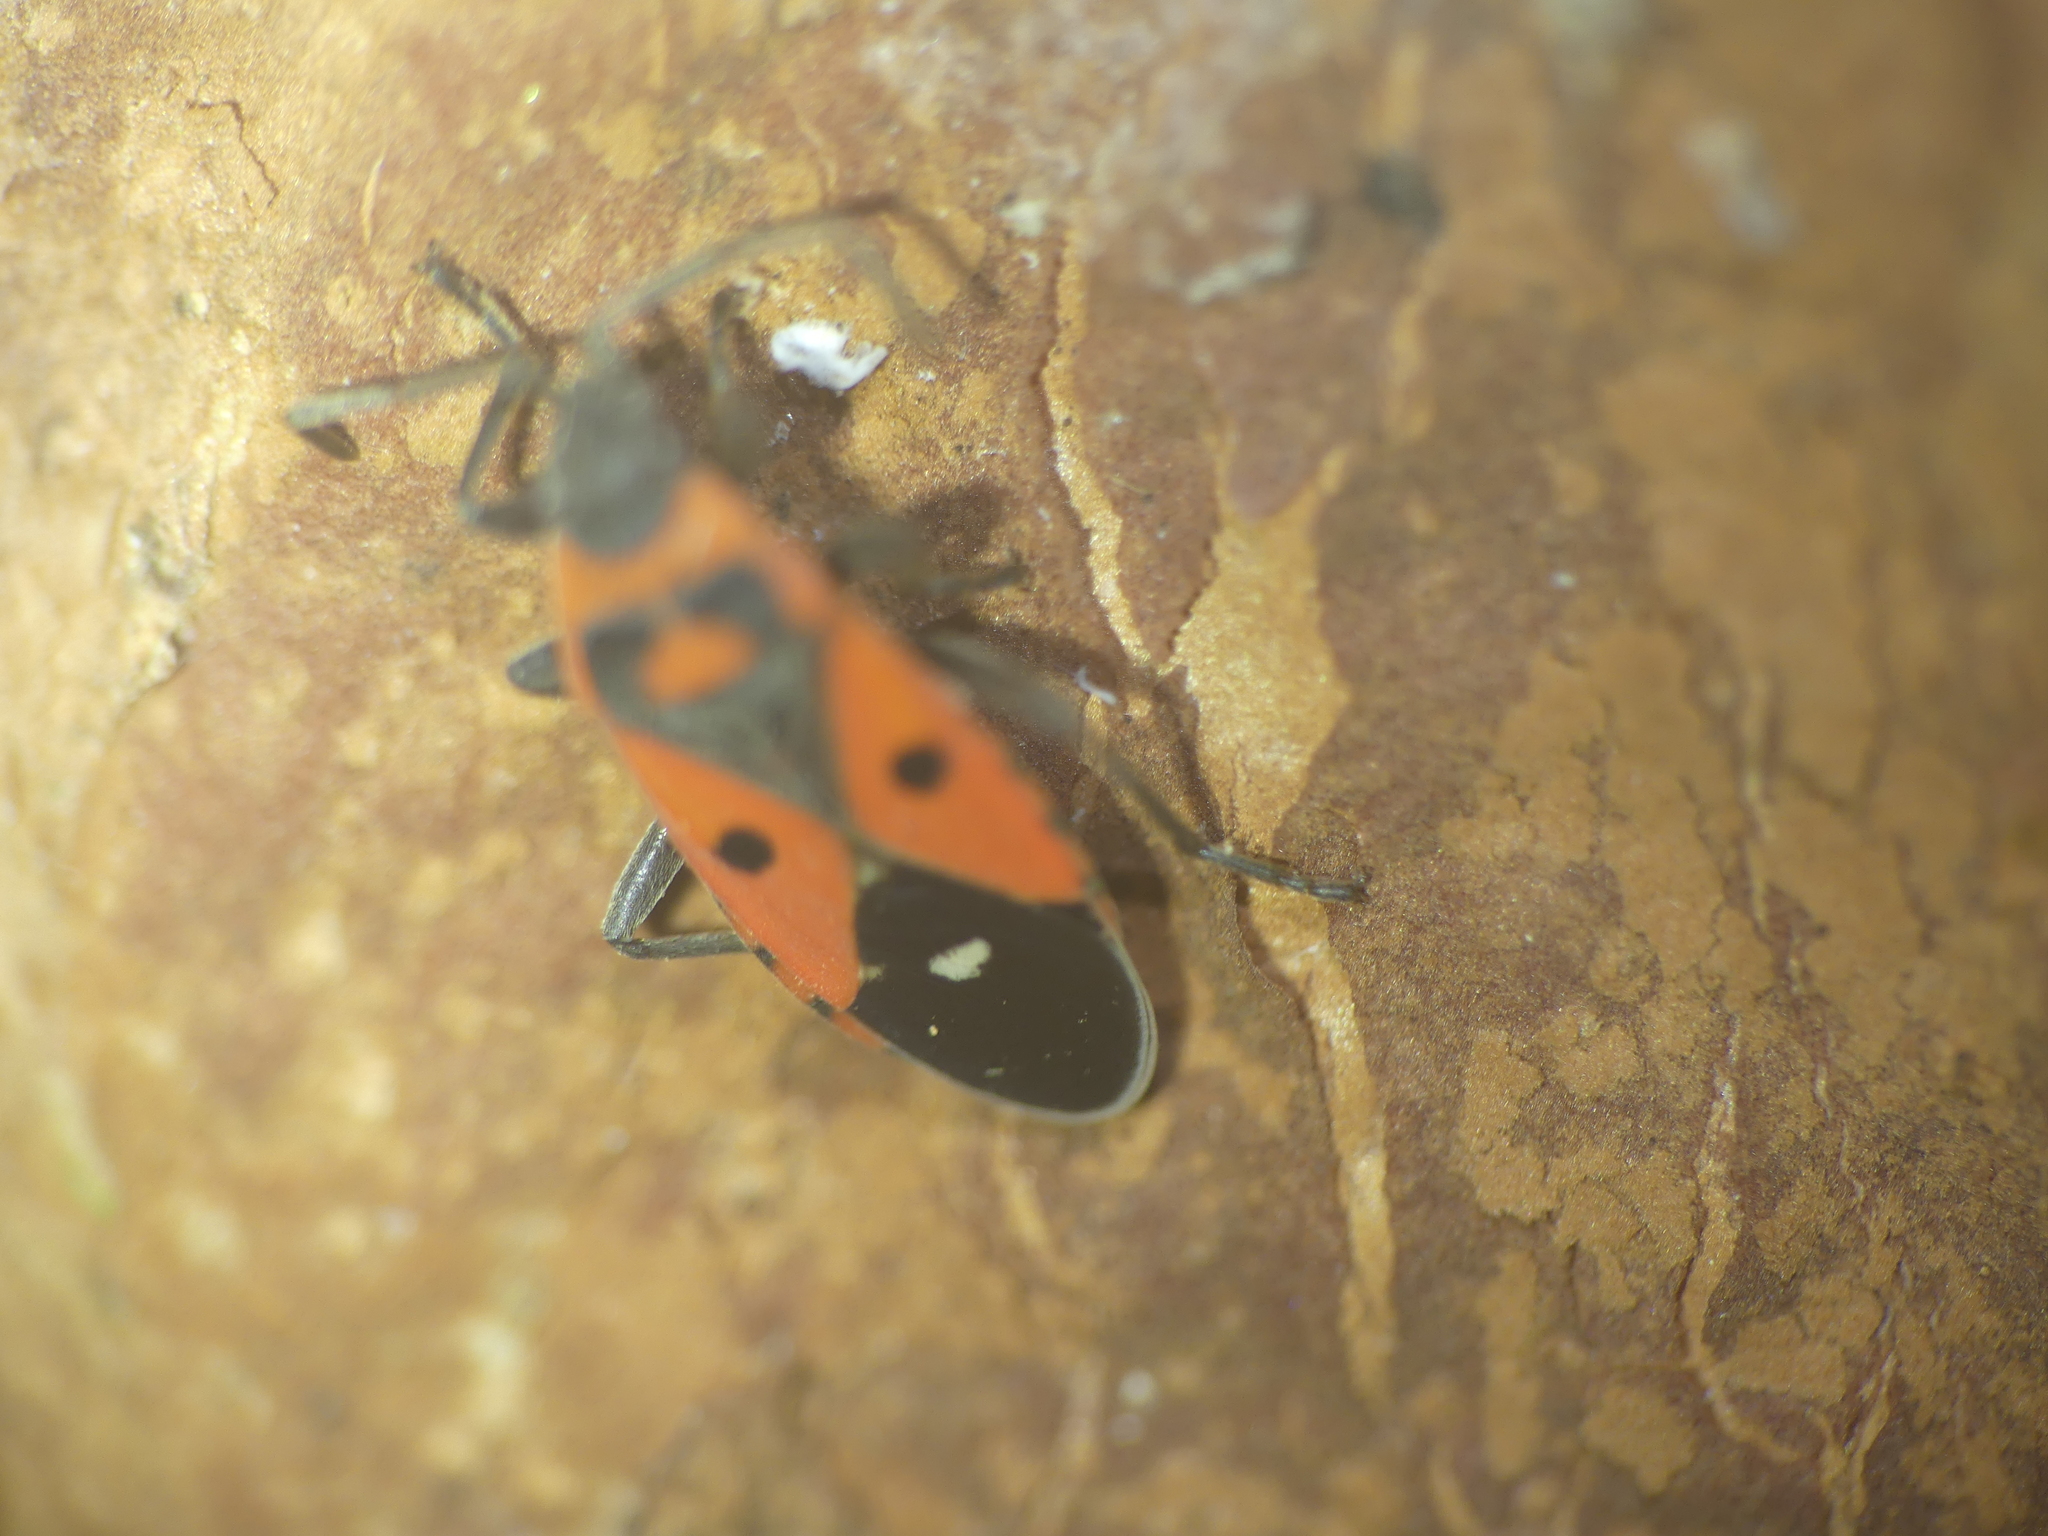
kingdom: Animalia
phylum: Arthropoda
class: Insecta
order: Hemiptera
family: Lygaeidae
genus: Melanocoryphus
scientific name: Melanocoryphus albomaculatus
